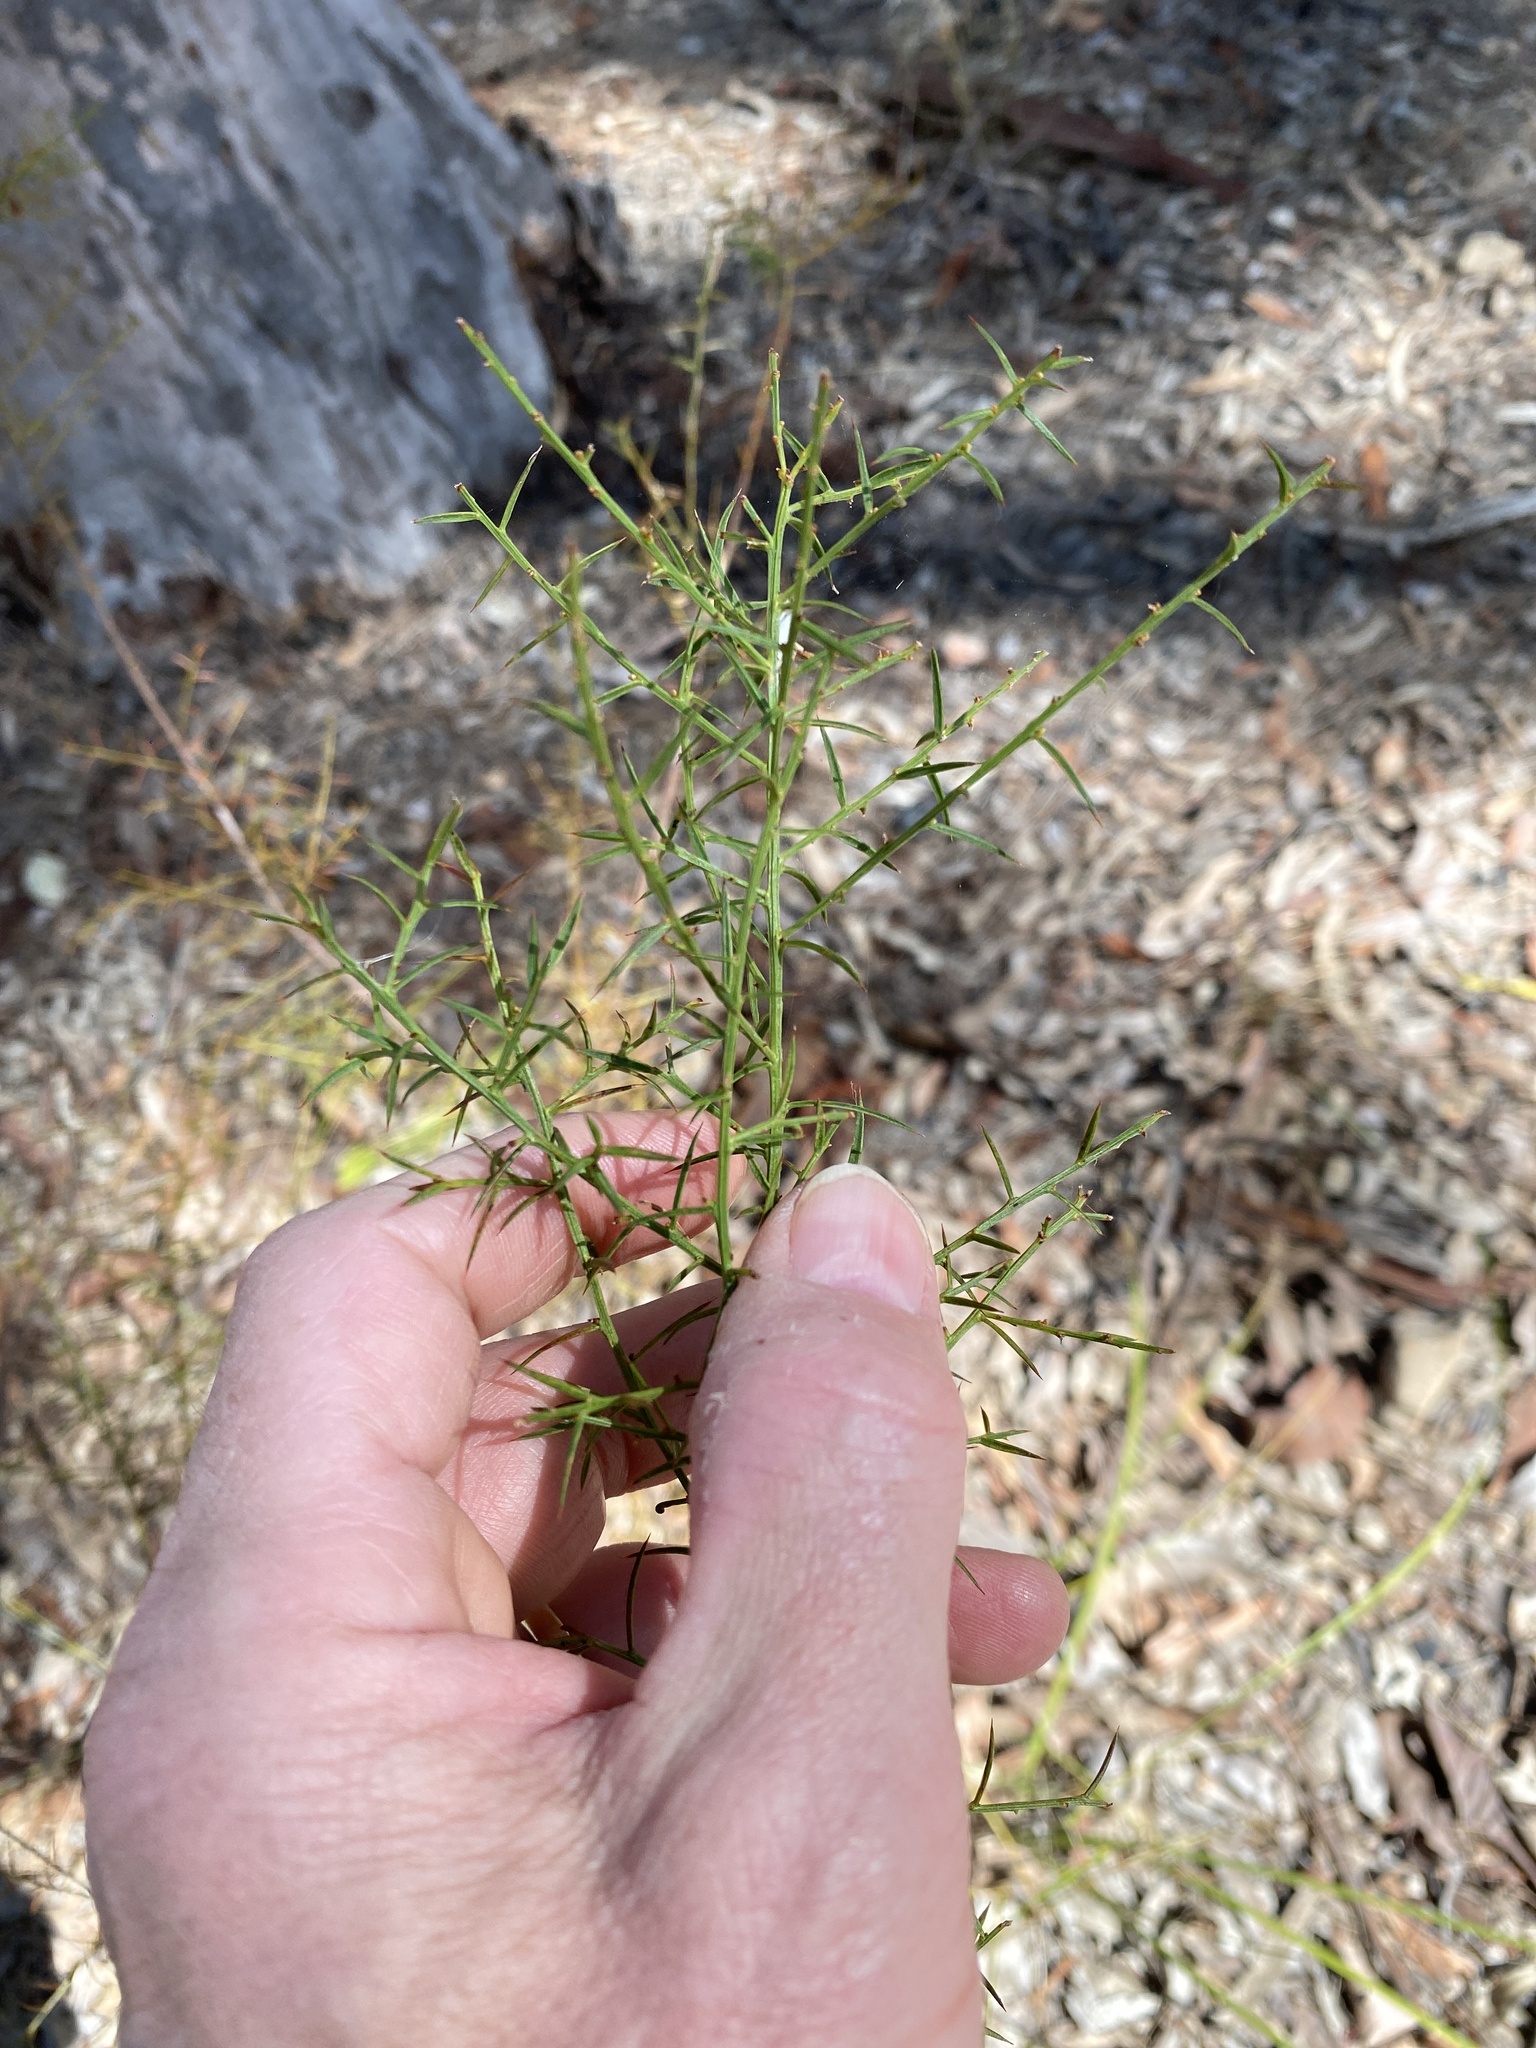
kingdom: Plantae
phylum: Tracheophyta
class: Magnoliopsida
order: Fabales
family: Fabaceae
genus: Daviesia
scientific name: Daviesia ulicifolia
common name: Gorse bitter-pea
